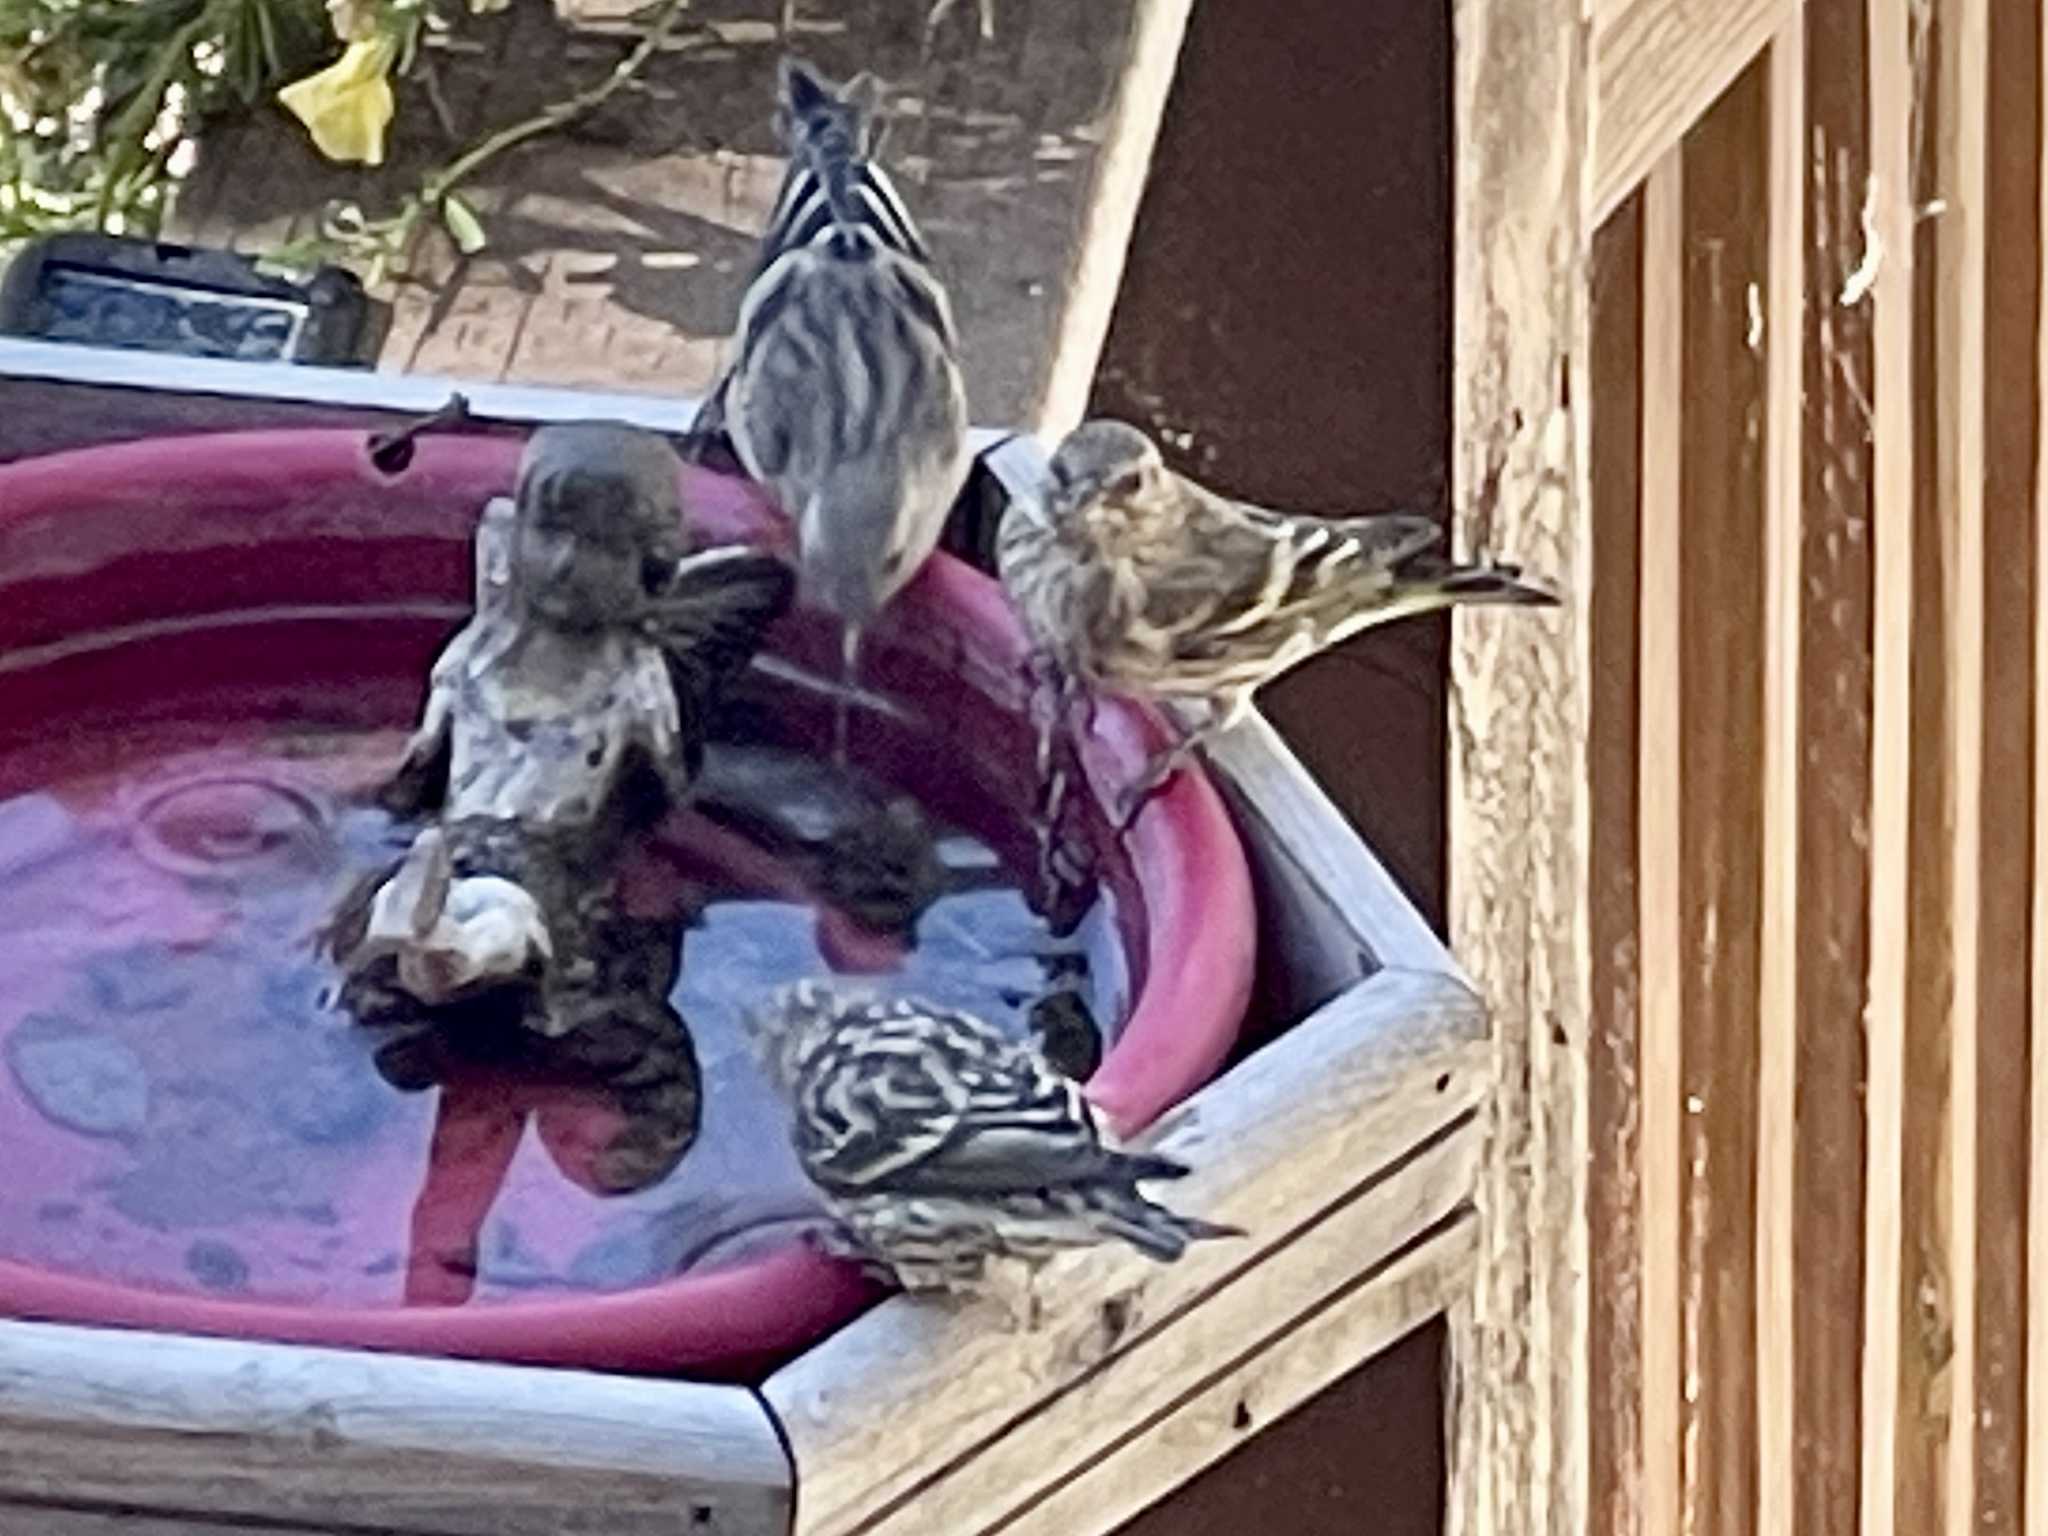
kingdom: Animalia
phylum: Chordata
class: Aves
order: Passeriformes
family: Fringillidae
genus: Spinus
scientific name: Spinus pinus
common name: Pine siskin
